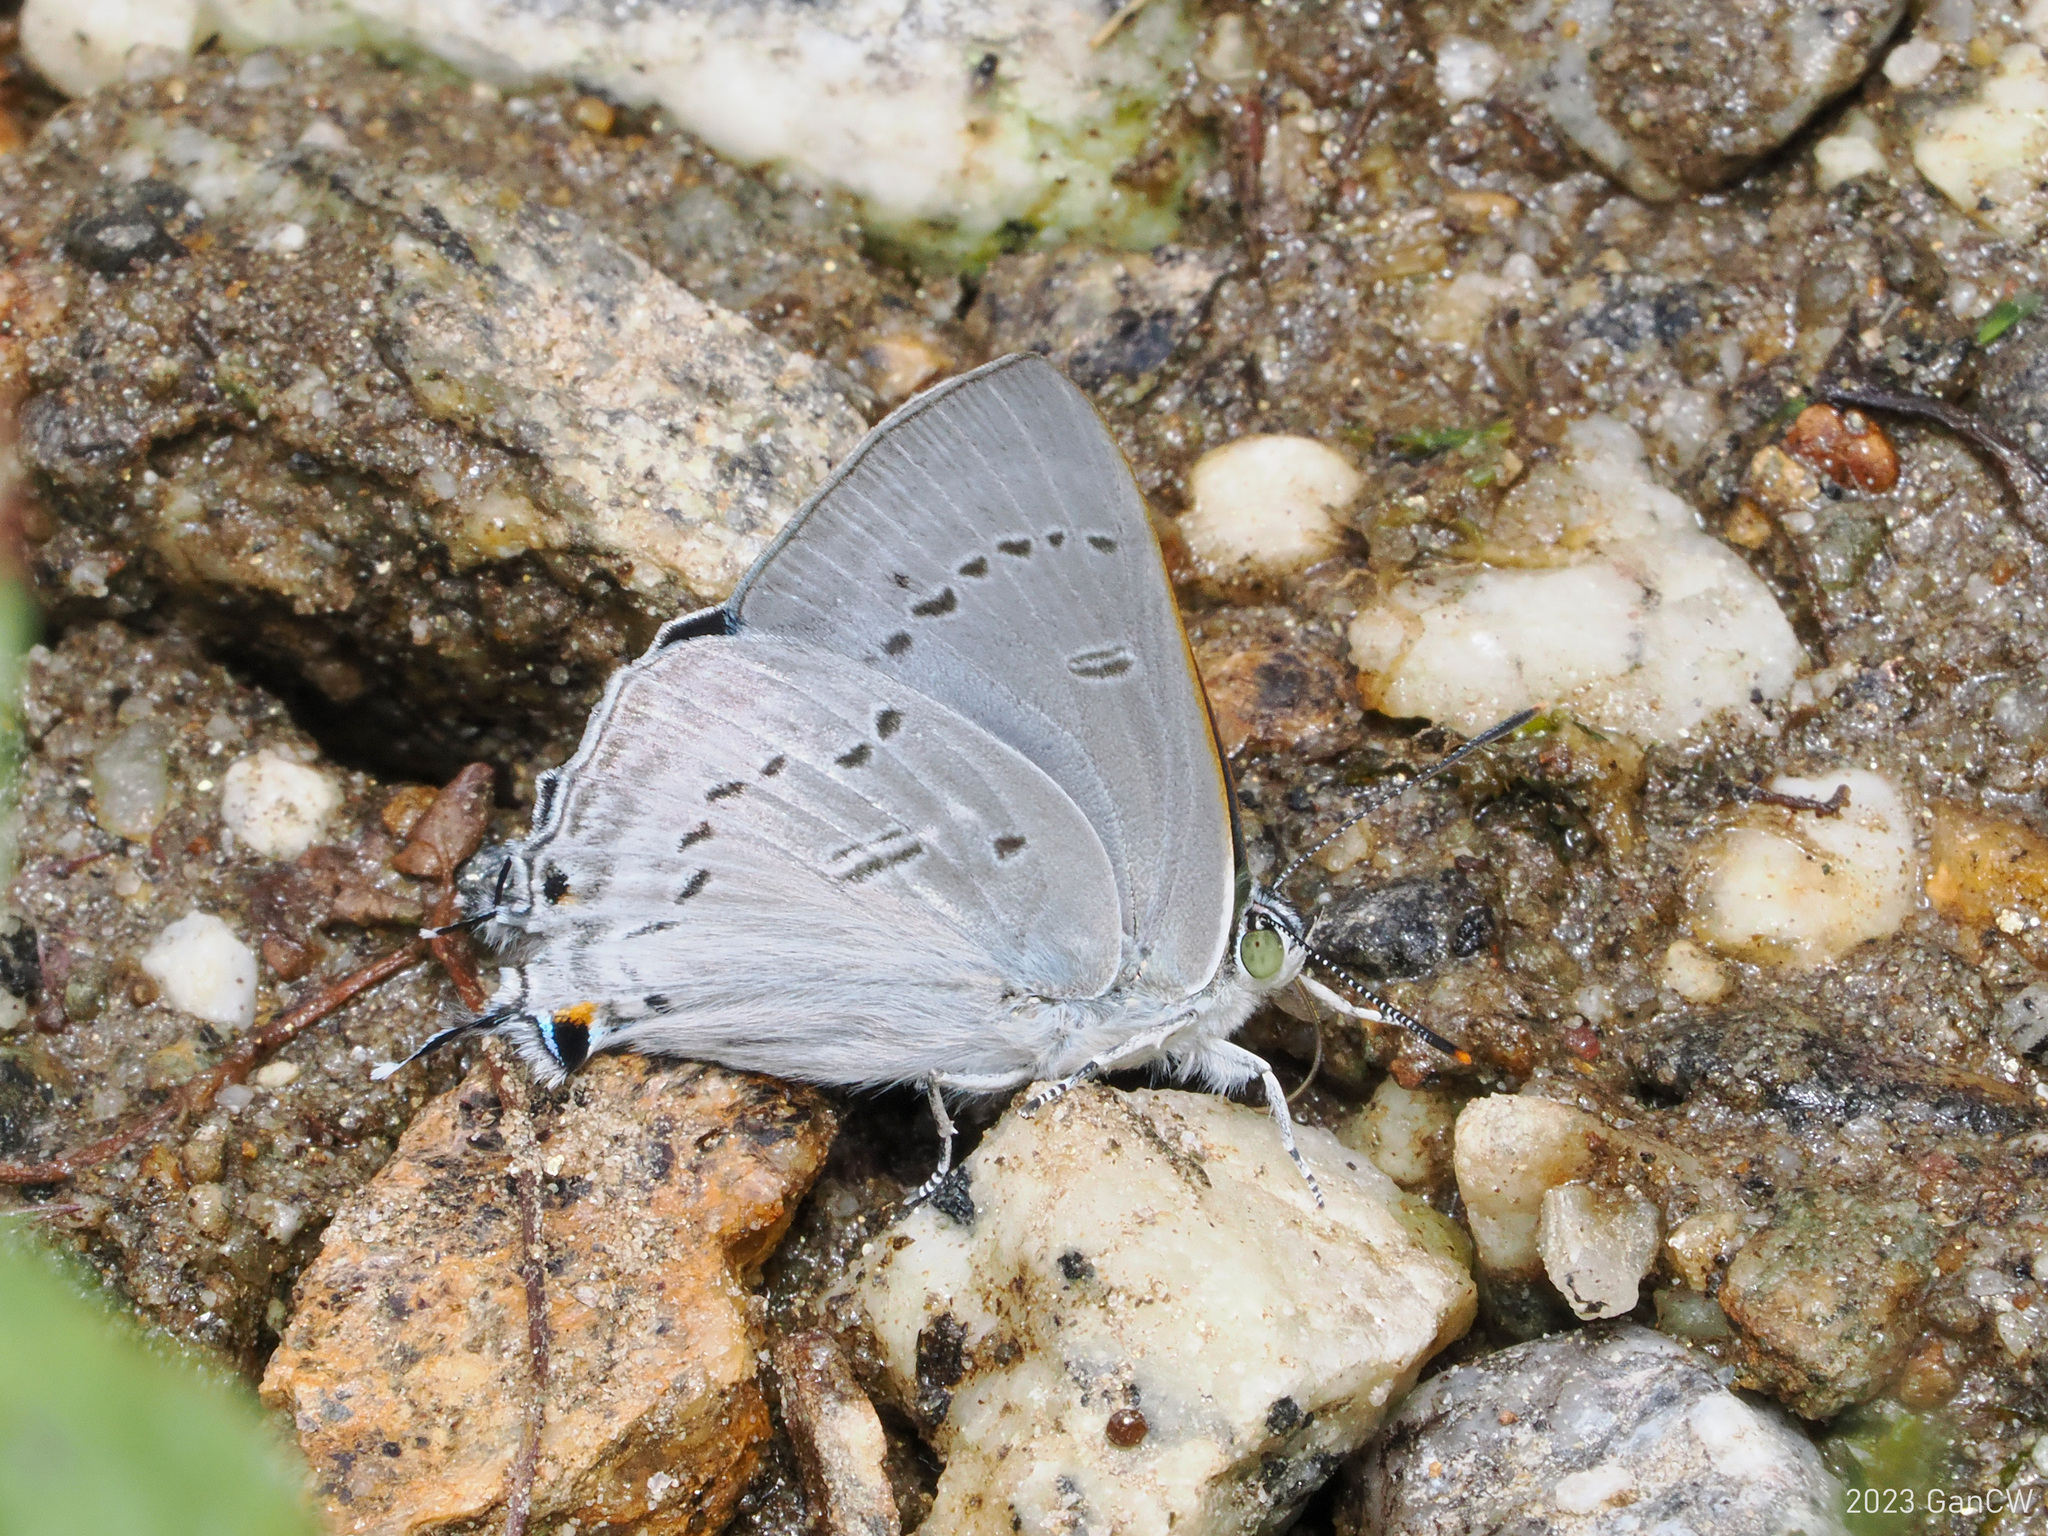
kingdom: Animalia
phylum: Arthropoda
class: Insecta
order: Lepidoptera
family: Lycaenidae
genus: Ancema
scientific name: Ancema ctesia
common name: Bi-spot royal
